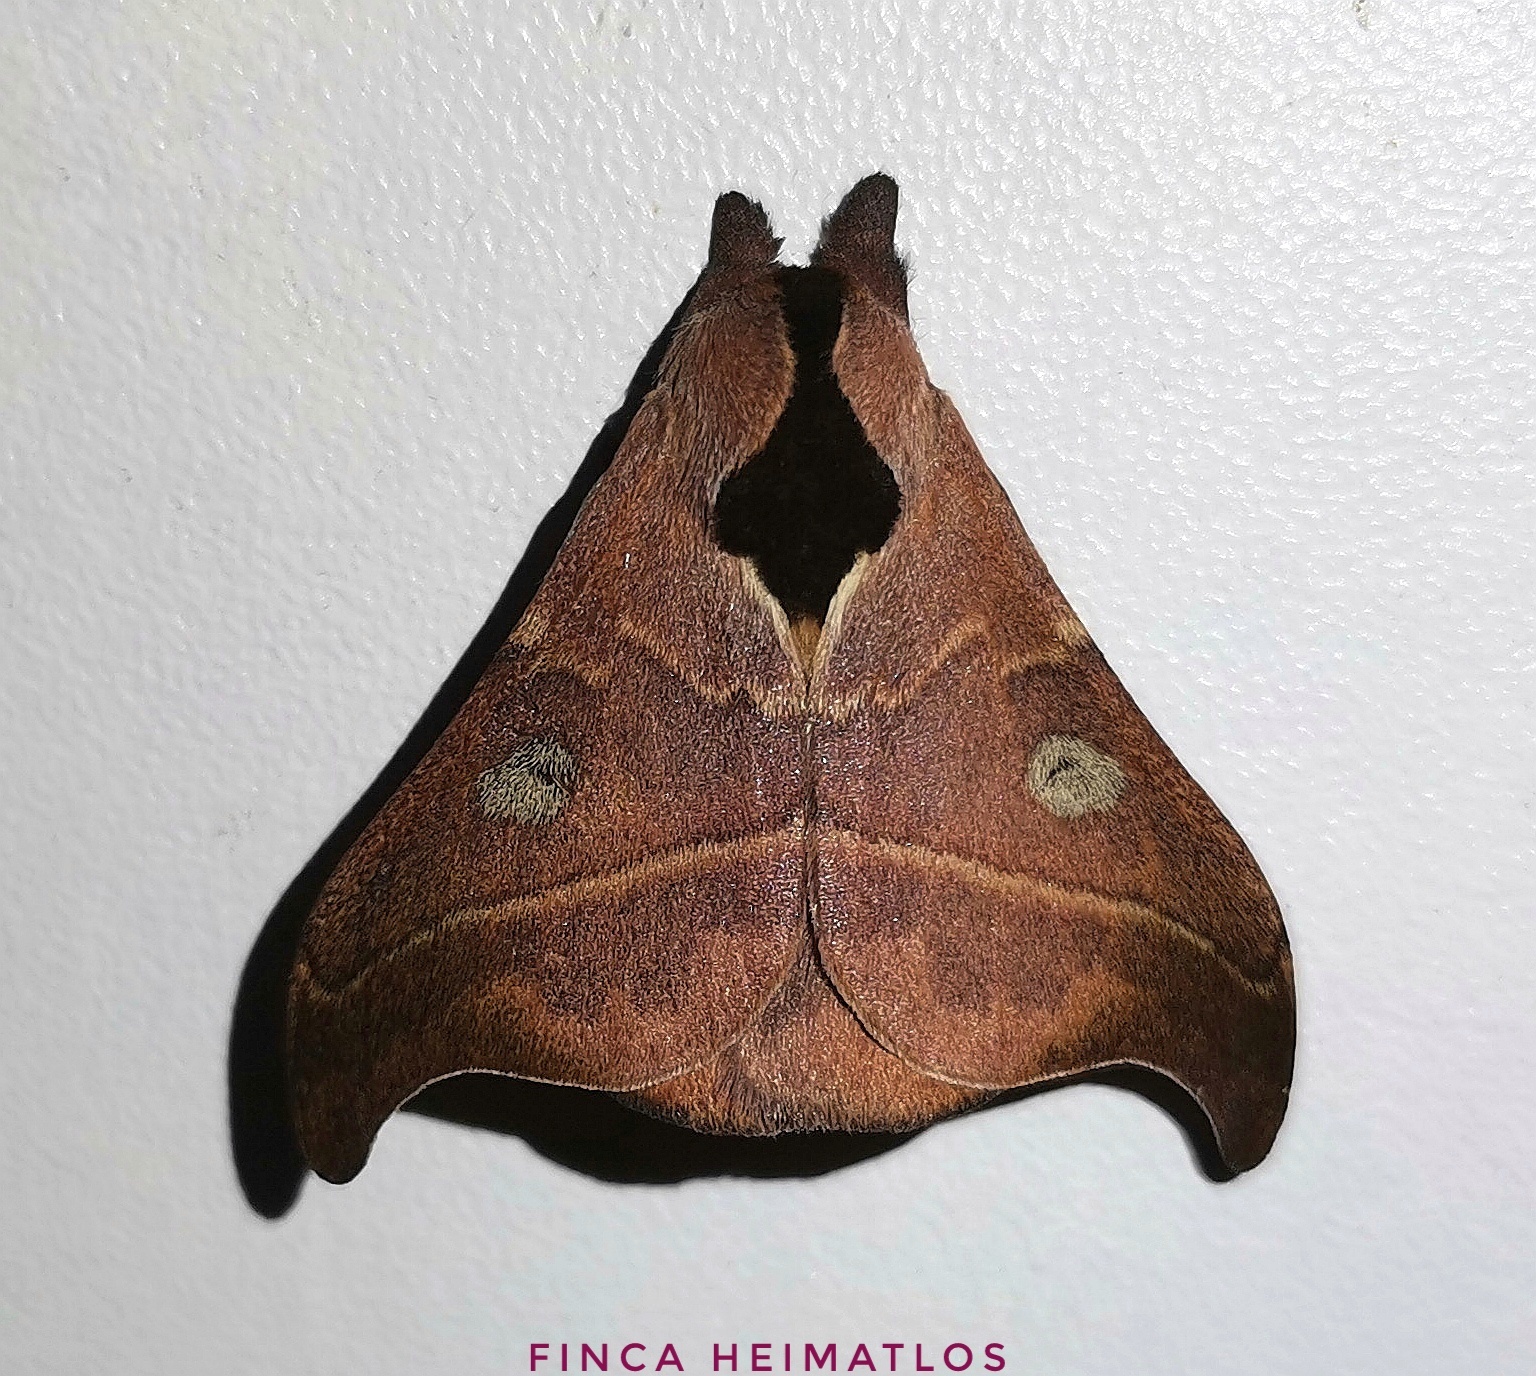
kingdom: Animalia
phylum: Arthropoda
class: Insecta
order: Lepidoptera
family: Saturniidae
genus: Hylesia
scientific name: Hylesia nanus
